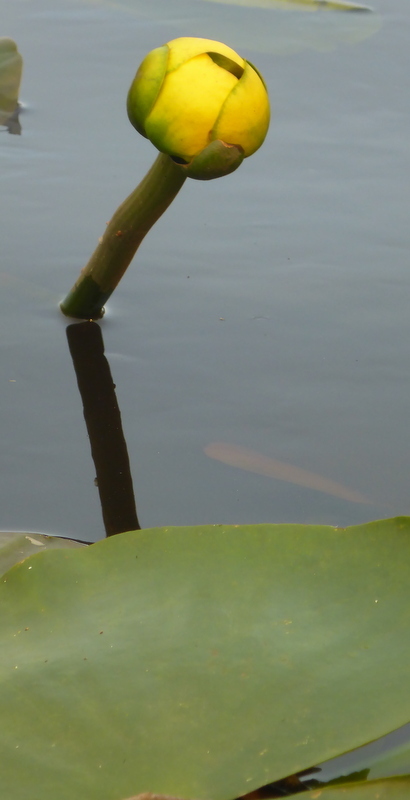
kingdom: Plantae
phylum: Tracheophyta
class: Magnoliopsida
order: Nymphaeales
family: Nymphaeaceae
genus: Nuphar
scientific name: Nuphar advena
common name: Spatter-dock
